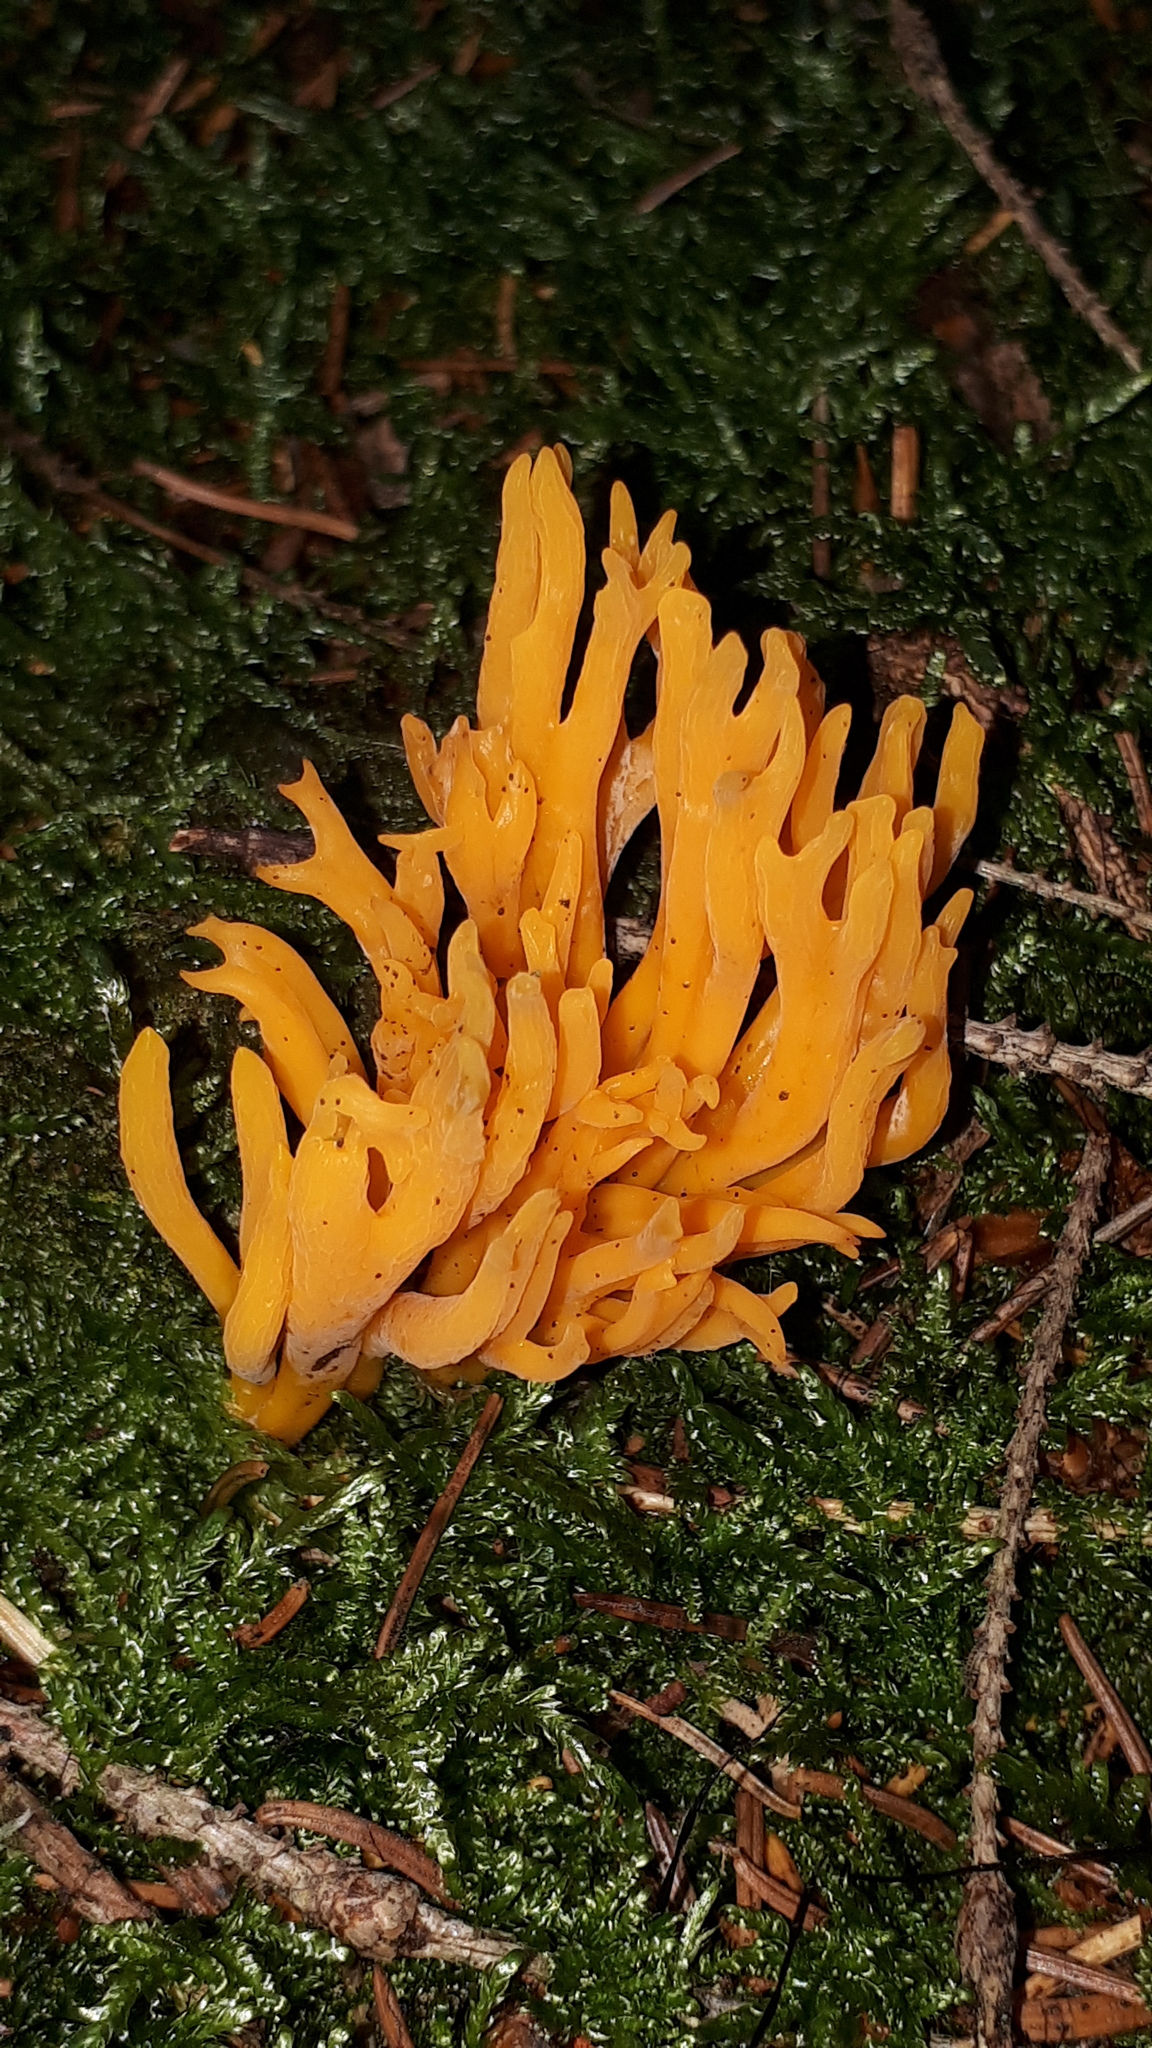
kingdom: Fungi
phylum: Basidiomycota
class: Dacrymycetes
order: Dacrymycetales
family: Dacrymycetaceae
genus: Calocera
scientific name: Calocera viscosa
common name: Yellow stagshorn
